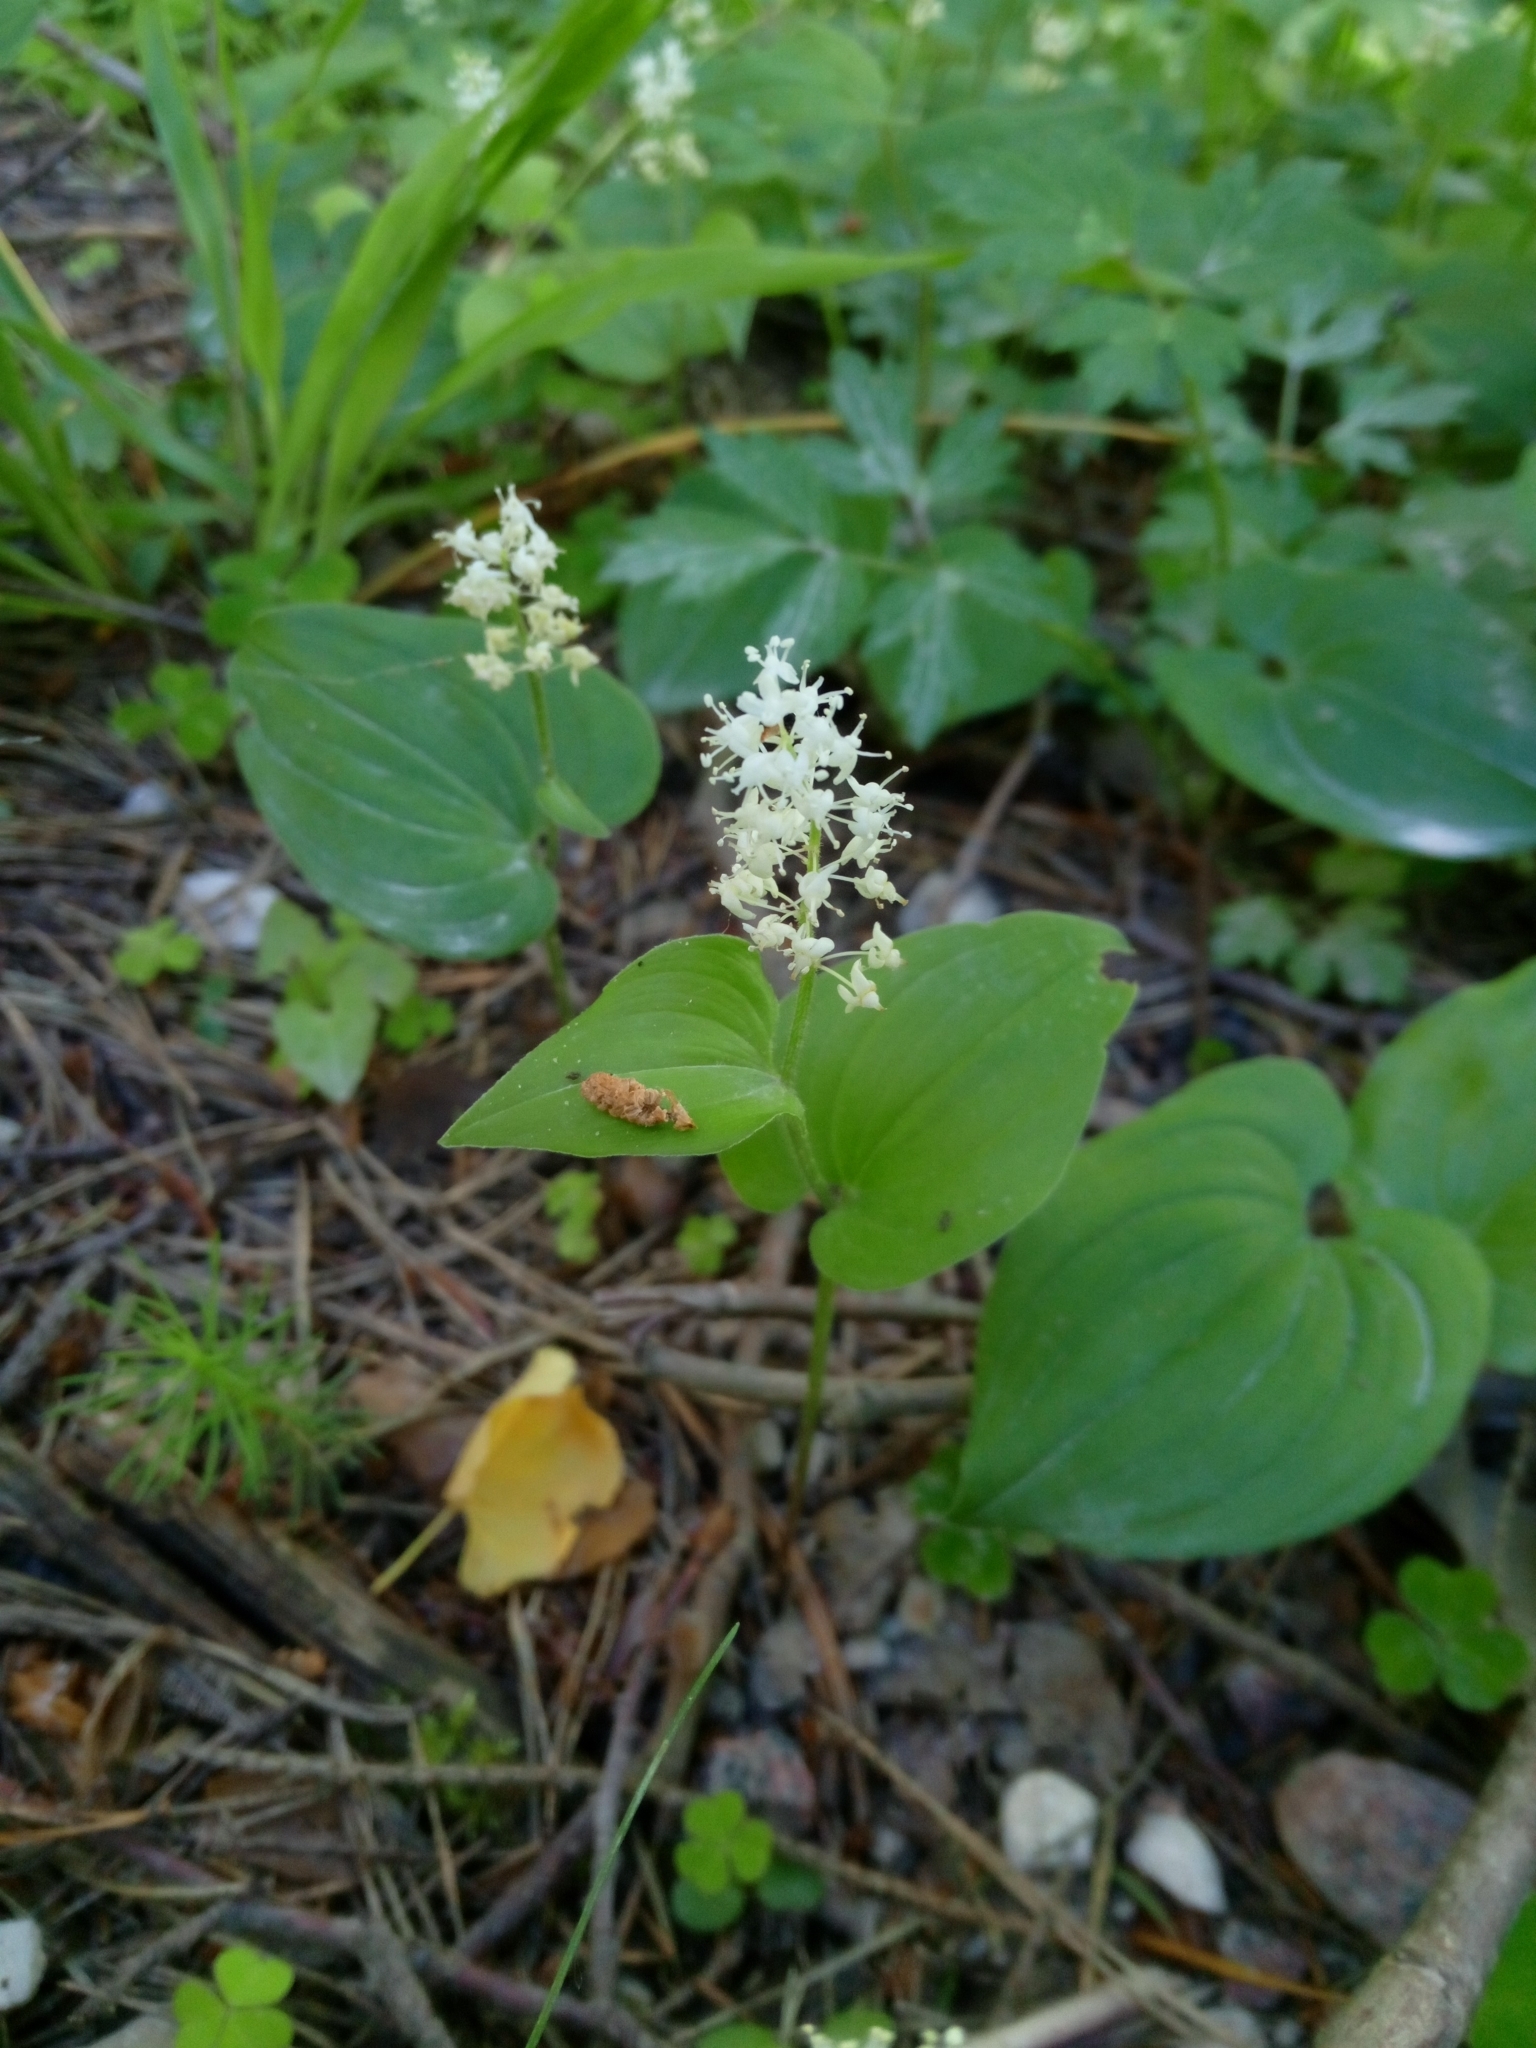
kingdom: Plantae
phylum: Tracheophyta
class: Liliopsida
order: Asparagales
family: Asparagaceae
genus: Maianthemum
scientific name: Maianthemum bifolium
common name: May lily
